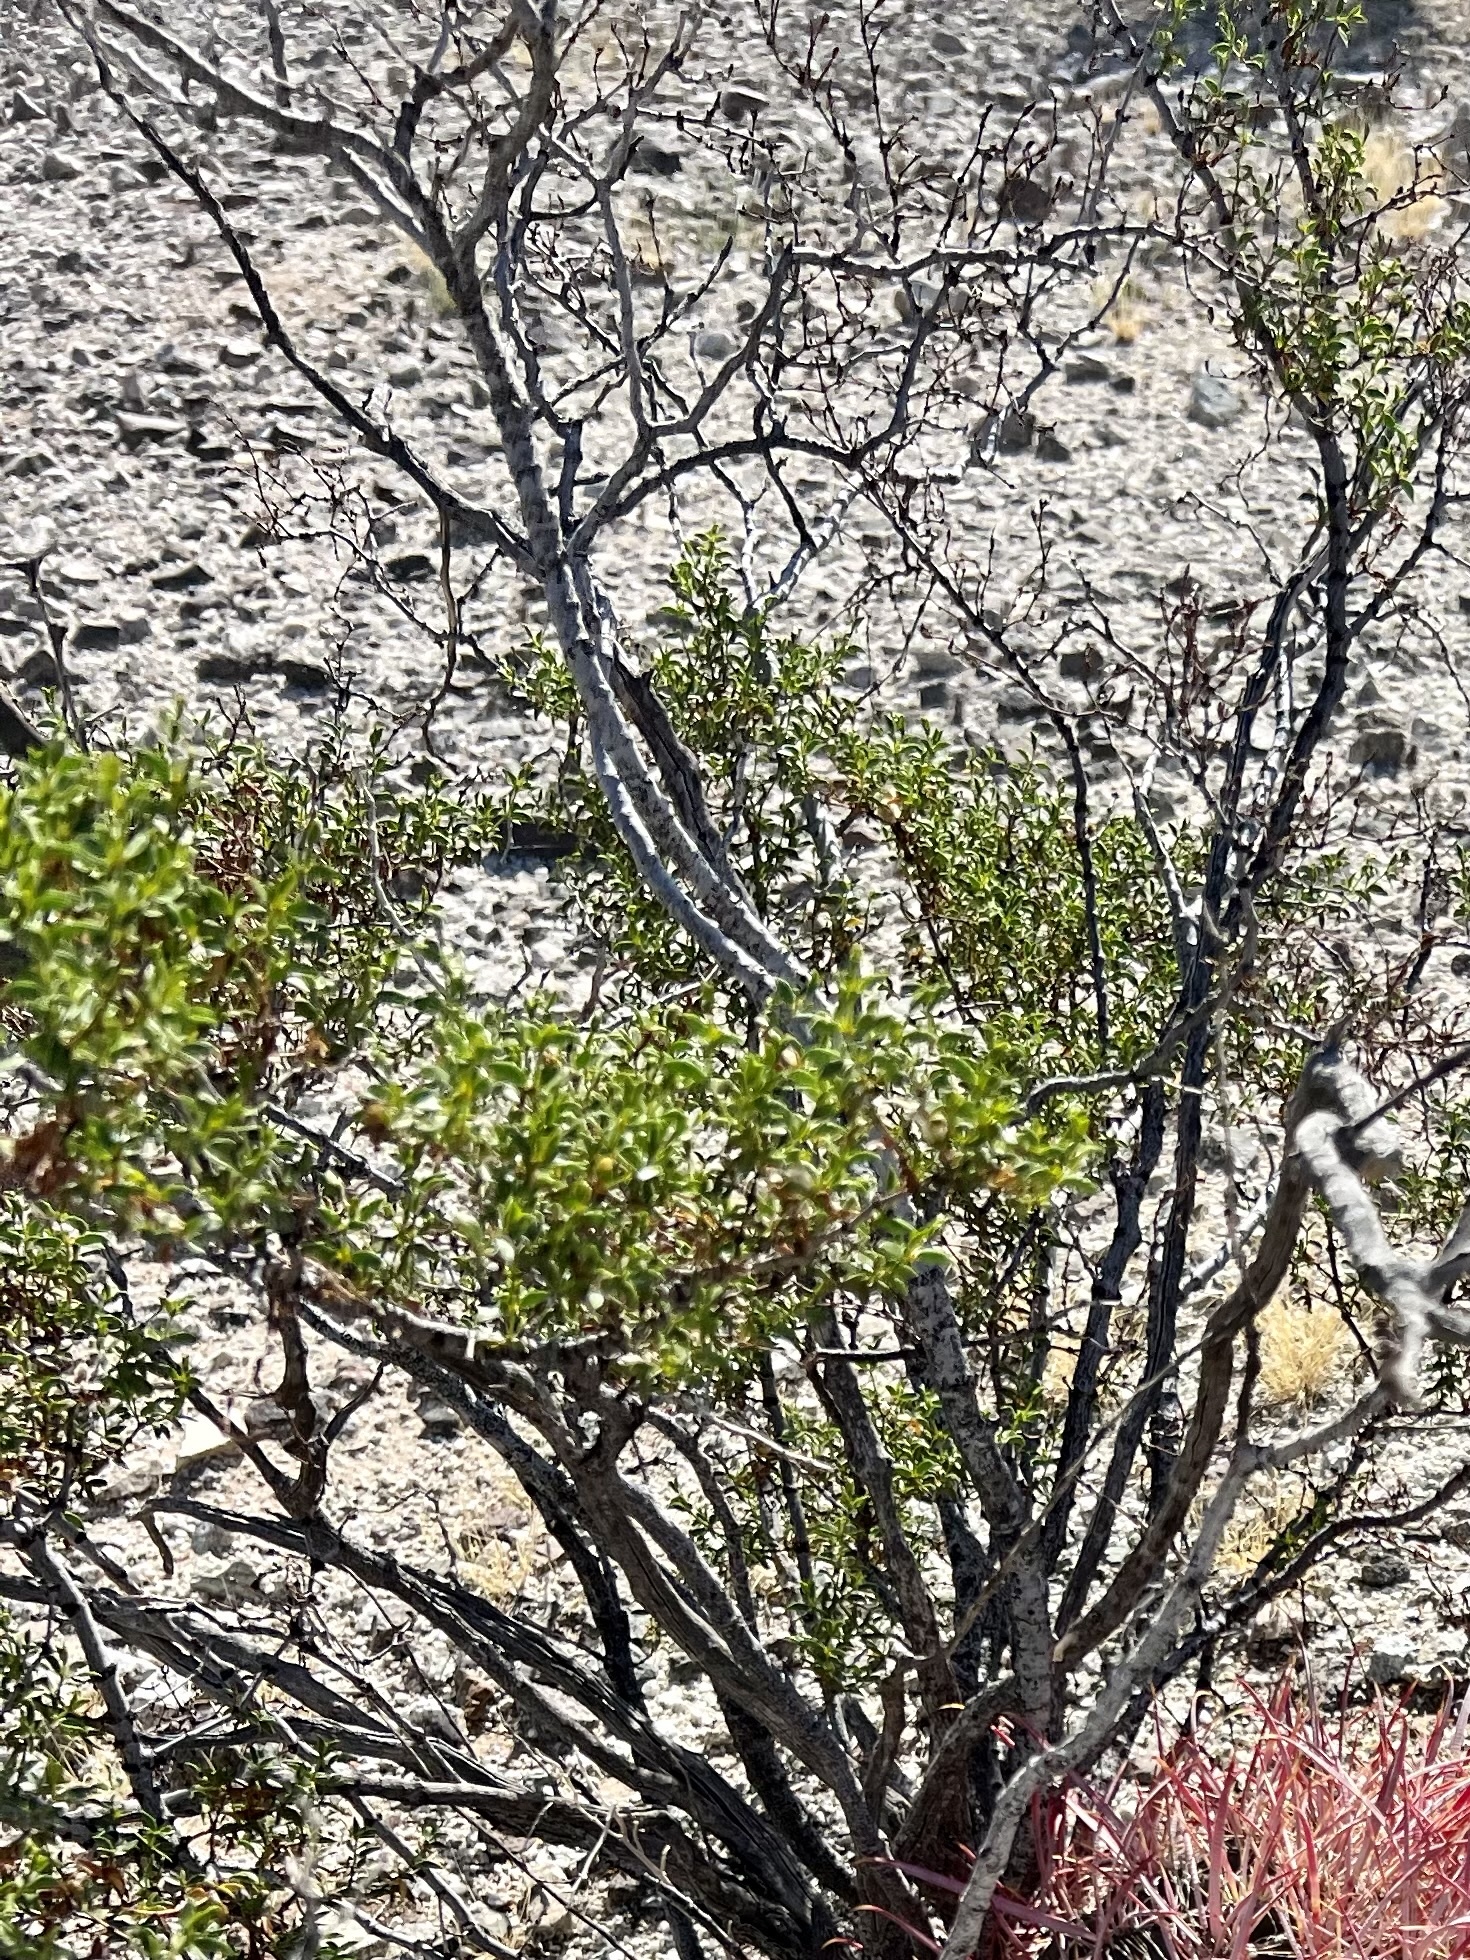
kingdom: Plantae
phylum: Tracheophyta
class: Magnoliopsida
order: Zygophyllales
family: Zygophyllaceae
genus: Larrea
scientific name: Larrea tridentata
